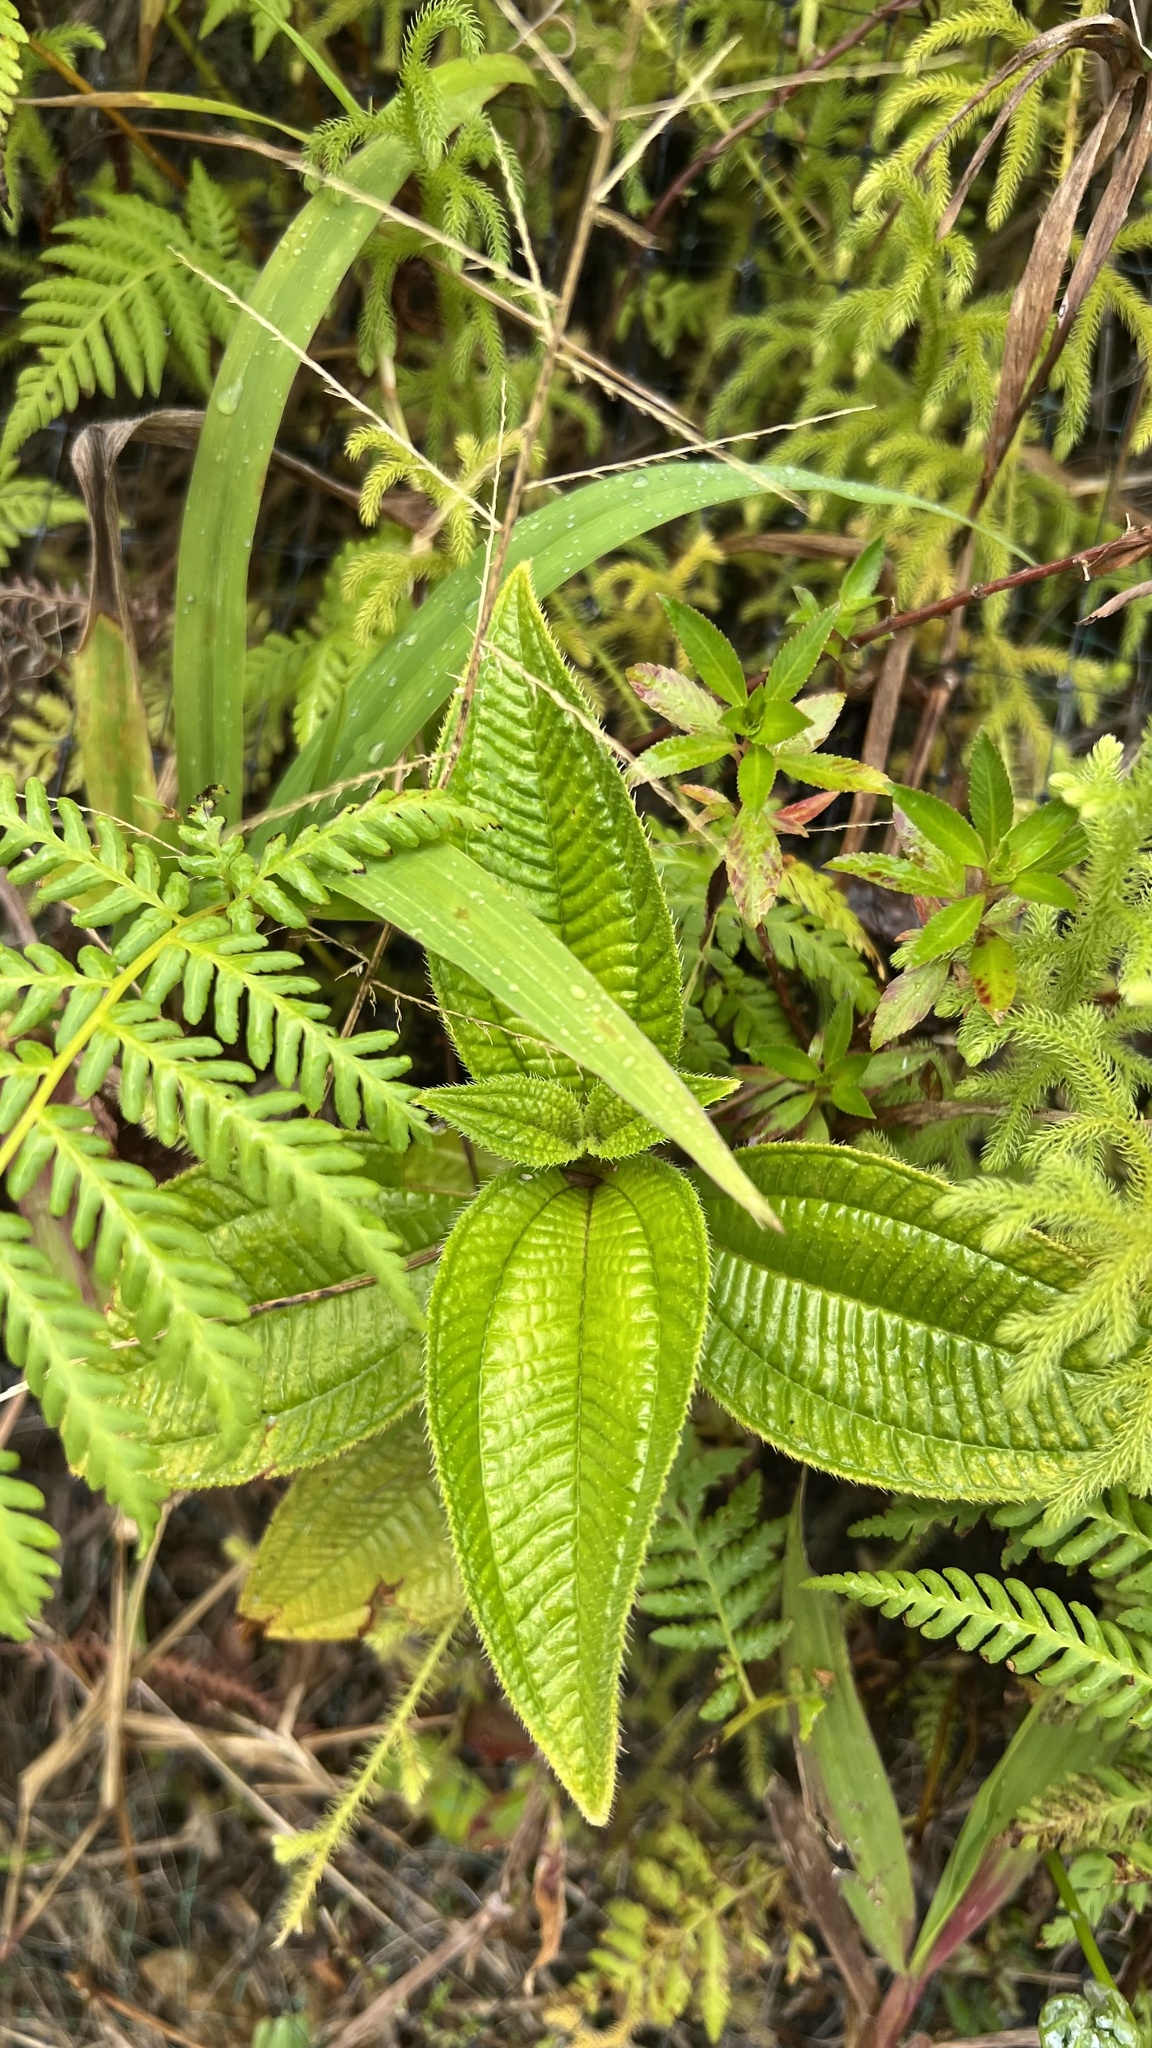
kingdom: Plantae
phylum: Tracheophyta
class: Magnoliopsida
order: Myrtales
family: Melastomataceae
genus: Miconia
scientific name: Miconia racemosa
